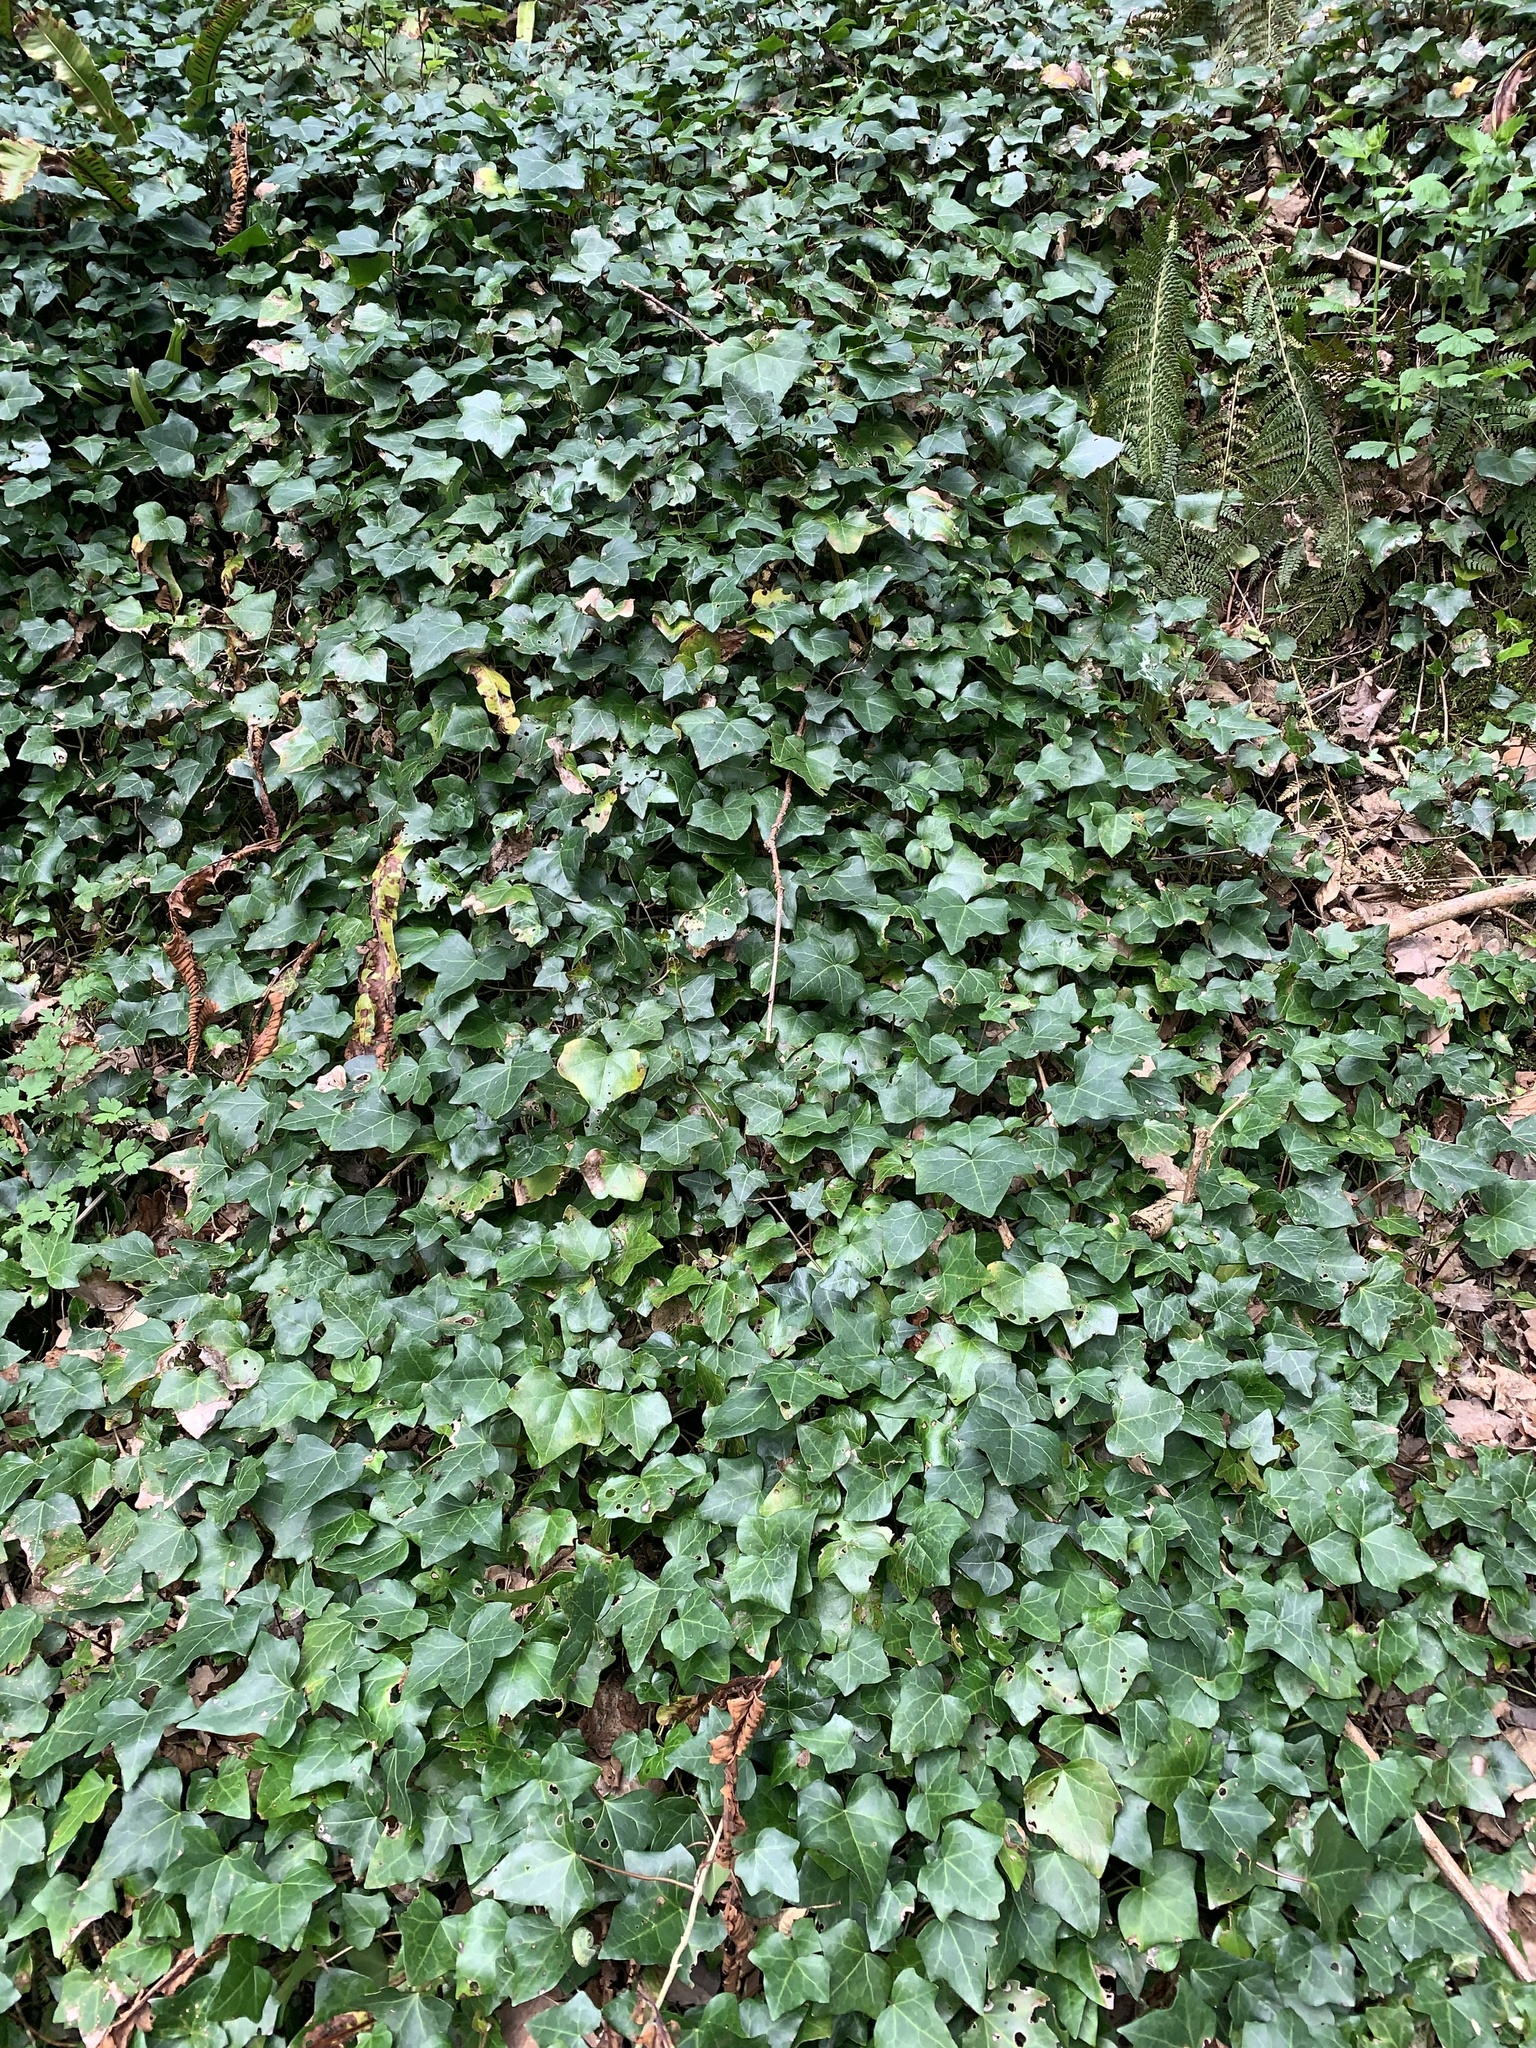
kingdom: Plantae
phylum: Tracheophyta
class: Magnoliopsida
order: Apiales
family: Araliaceae
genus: Hedera
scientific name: Hedera helix
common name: Ivy
